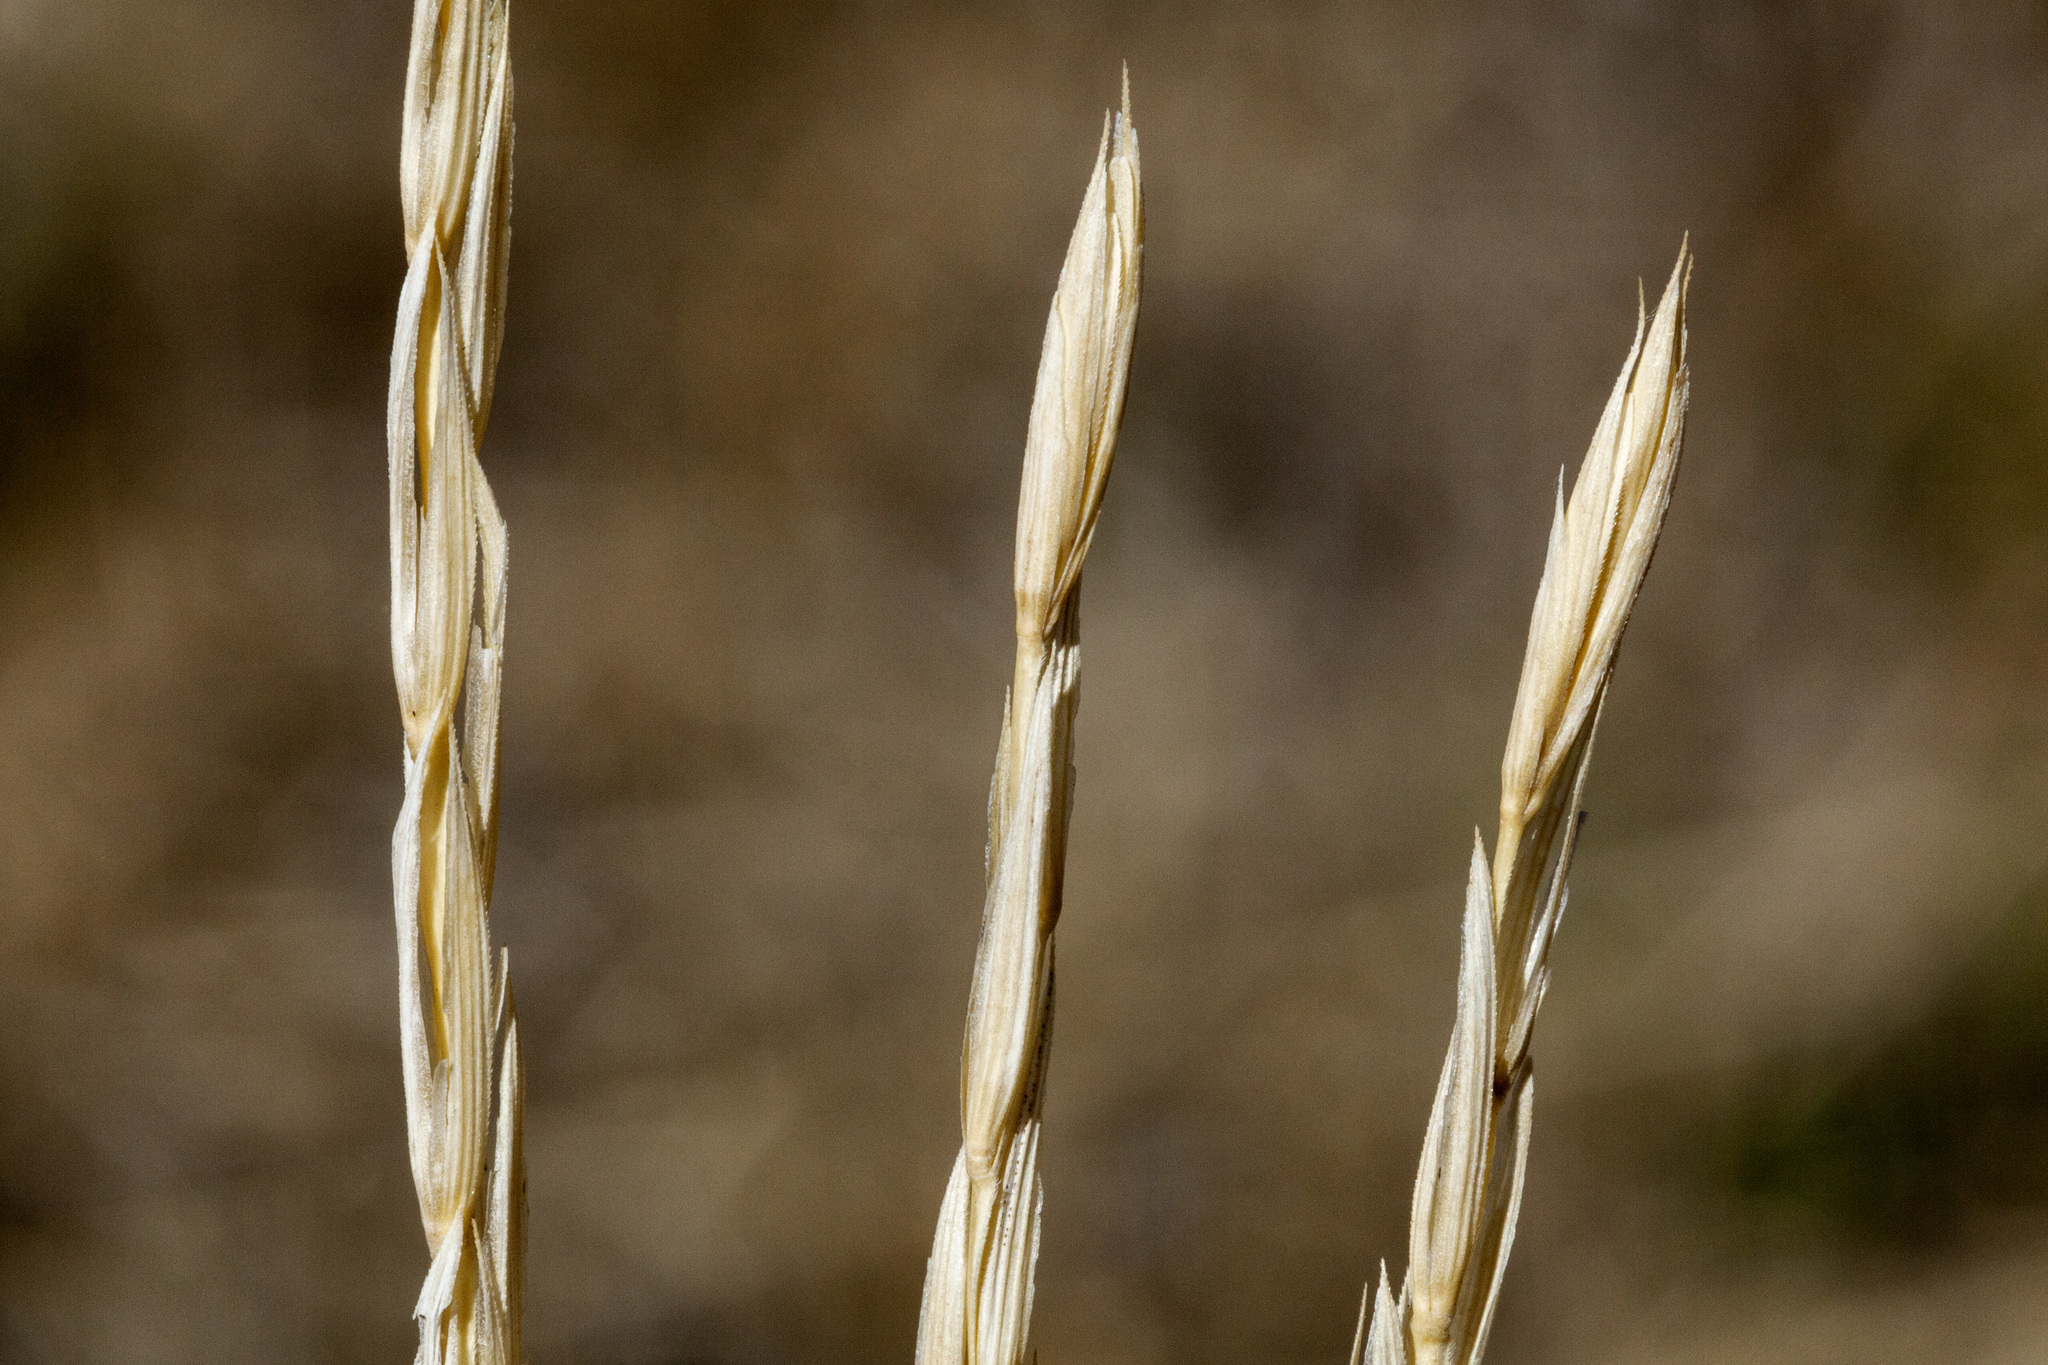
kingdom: Plantae
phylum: Tracheophyta
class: Liliopsida
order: Poales
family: Poaceae
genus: Elymus
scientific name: Elymus violaceus
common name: Arctic wheatgrass
